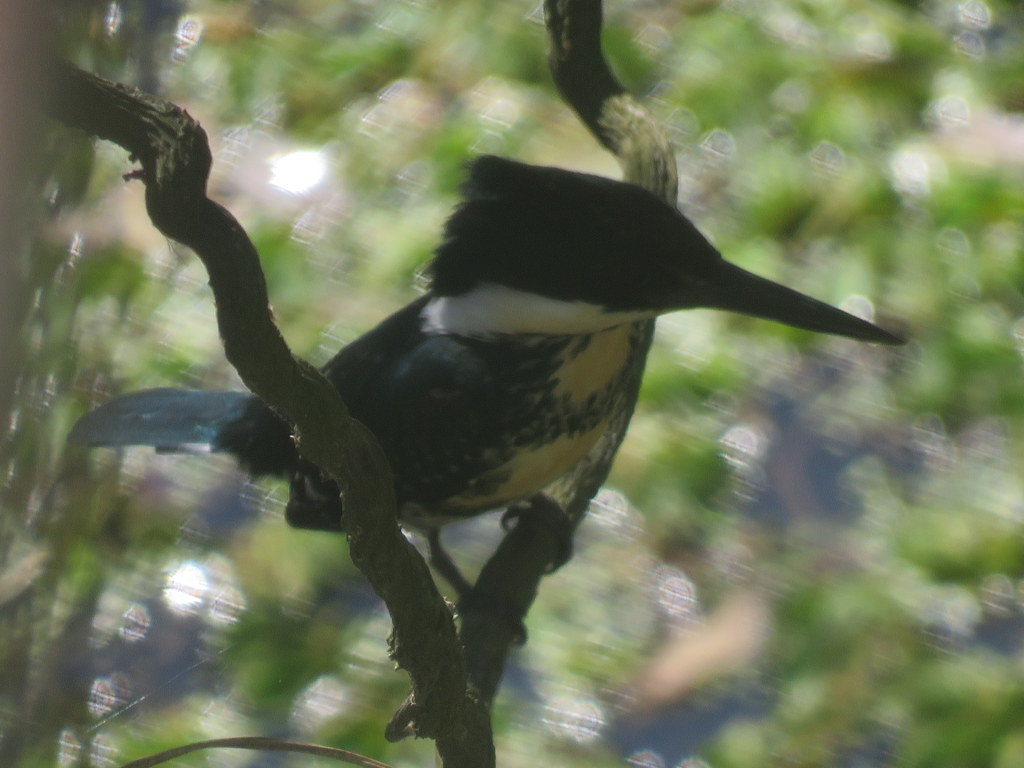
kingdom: Animalia
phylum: Chordata
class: Aves
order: Coraciiformes
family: Alcedinidae
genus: Chloroceryle
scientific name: Chloroceryle americana
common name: Green kingfisher
